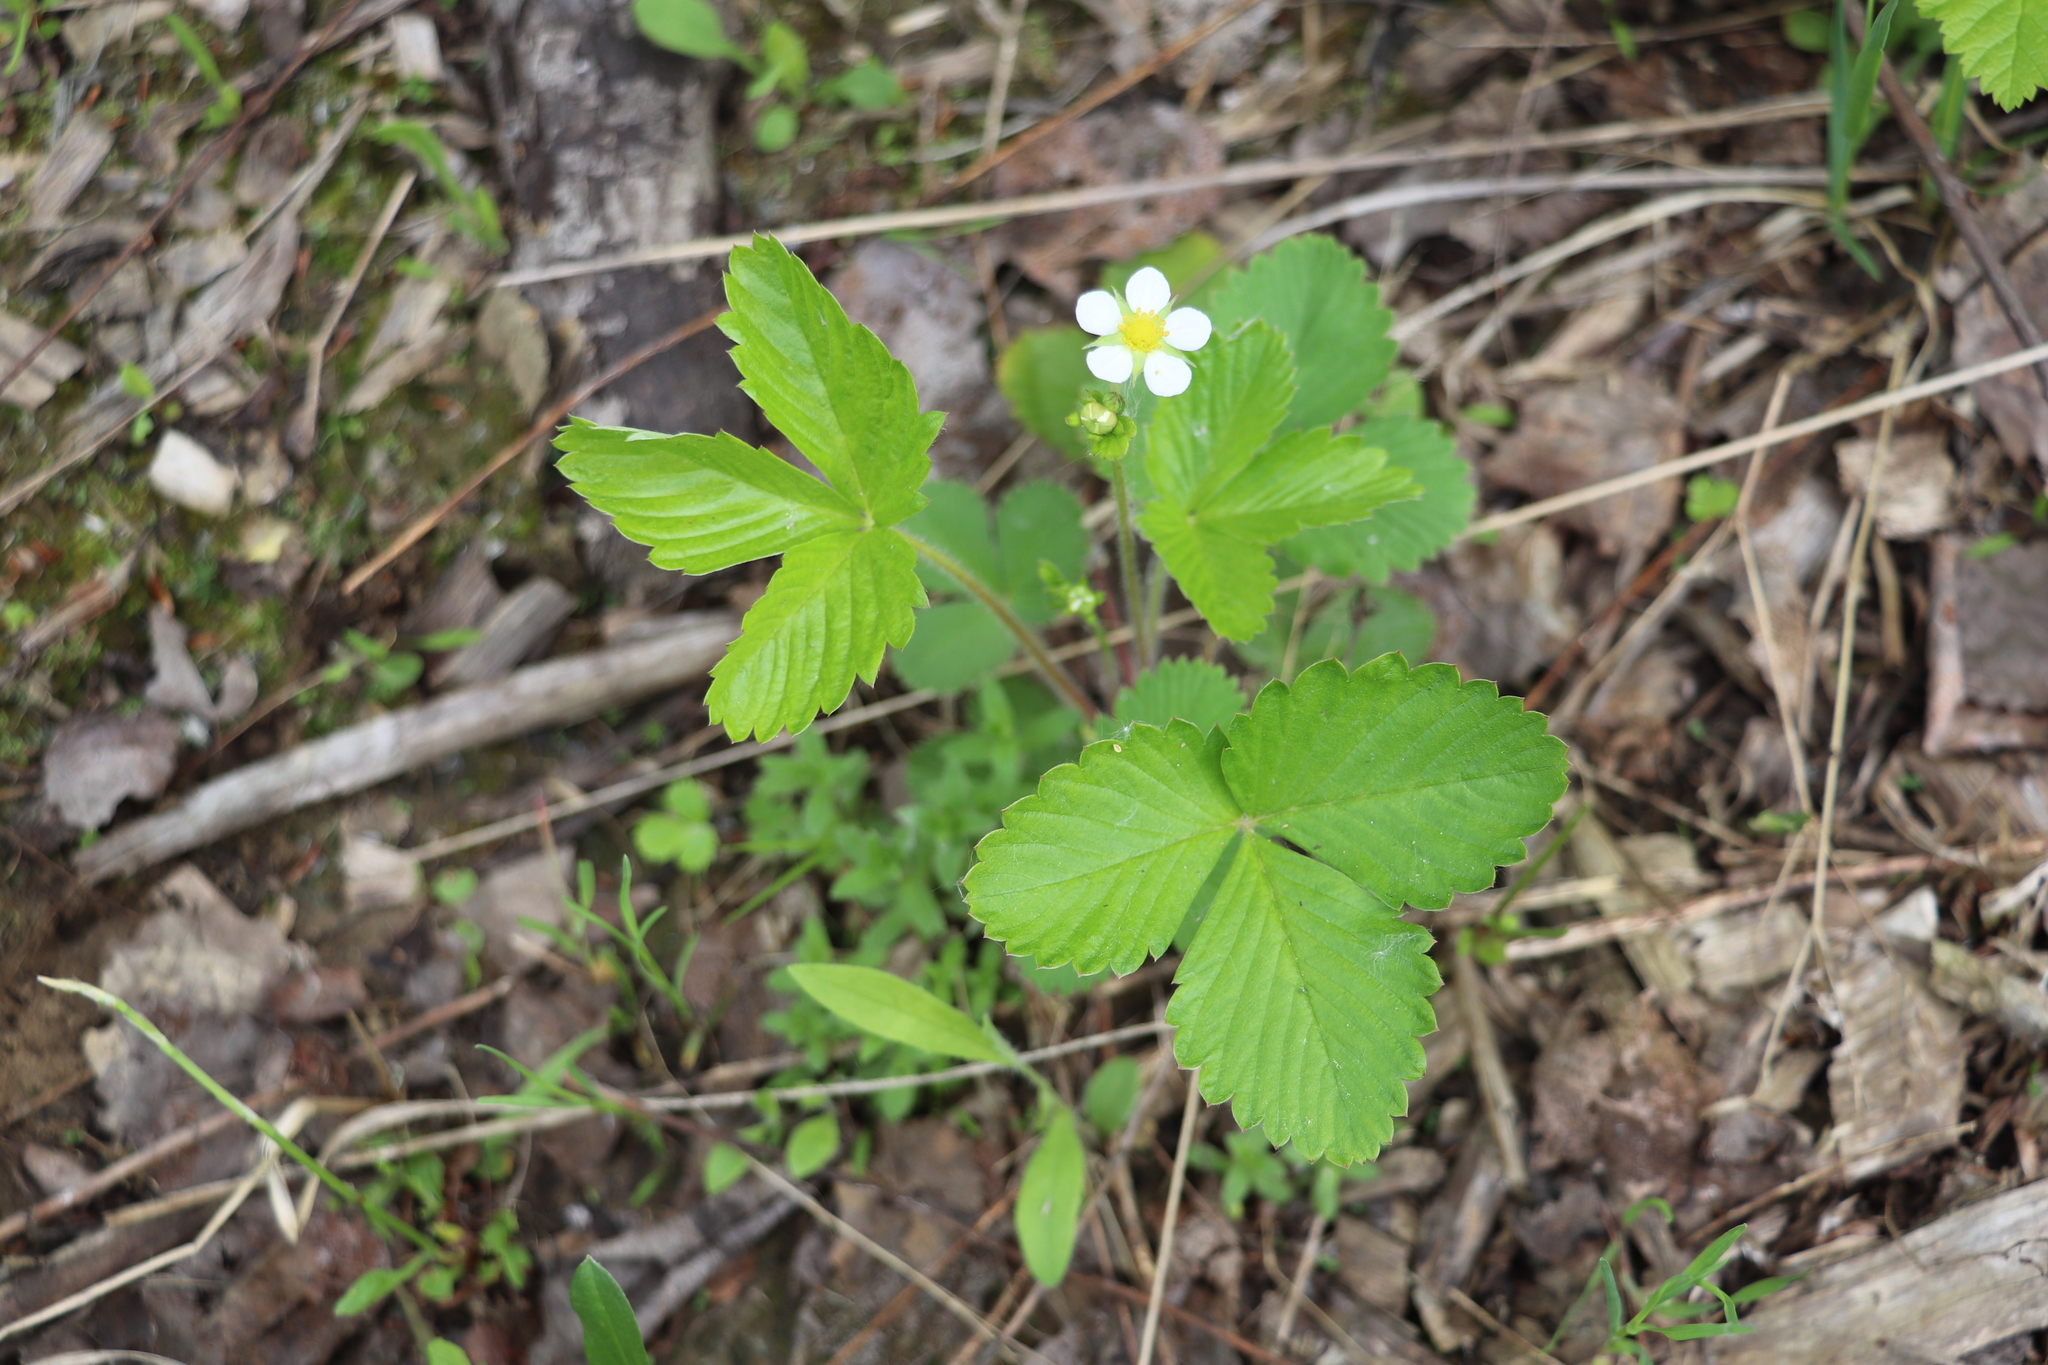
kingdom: Plantae
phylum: Tracheophyta
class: Magnoliopsida
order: Rosales
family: Rosaceae
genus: Fragaria
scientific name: Fragaria vesca
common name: Wild strawberry
